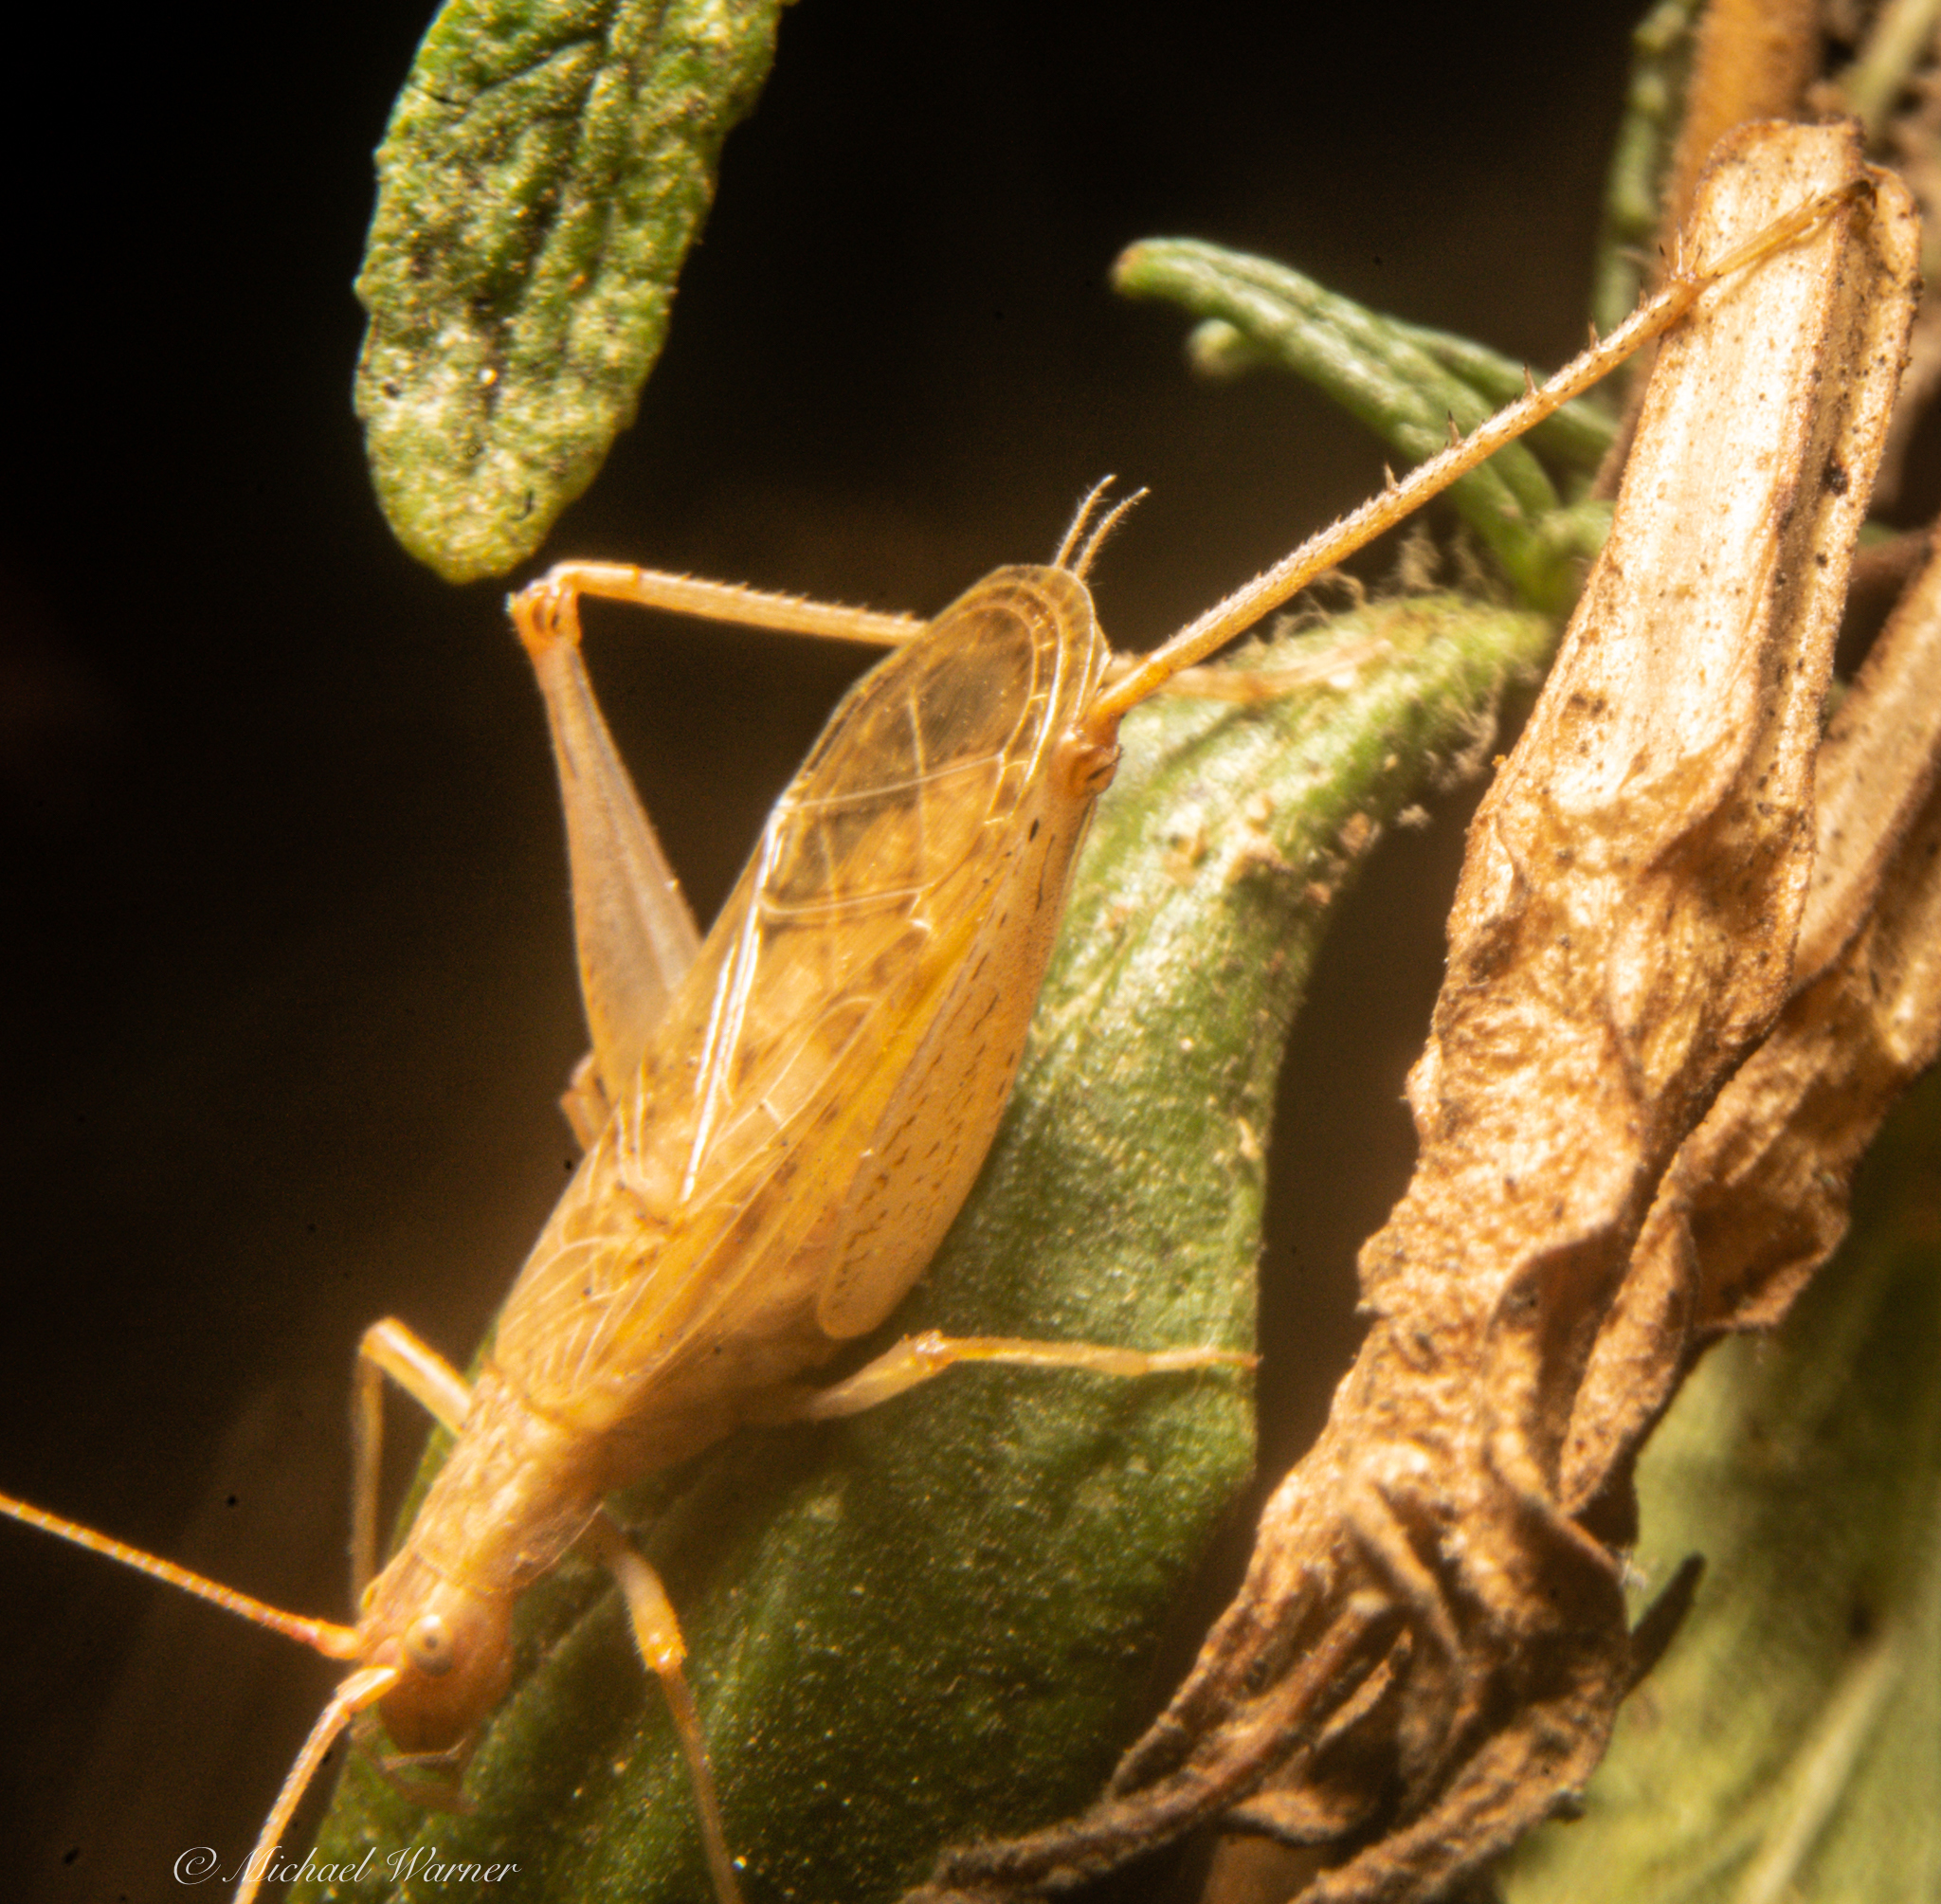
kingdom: Animalia
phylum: Arthropoda
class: Insecta
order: Orthoptera
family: Gryllidae
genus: Oecanthus
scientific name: Oecanthus californicus
